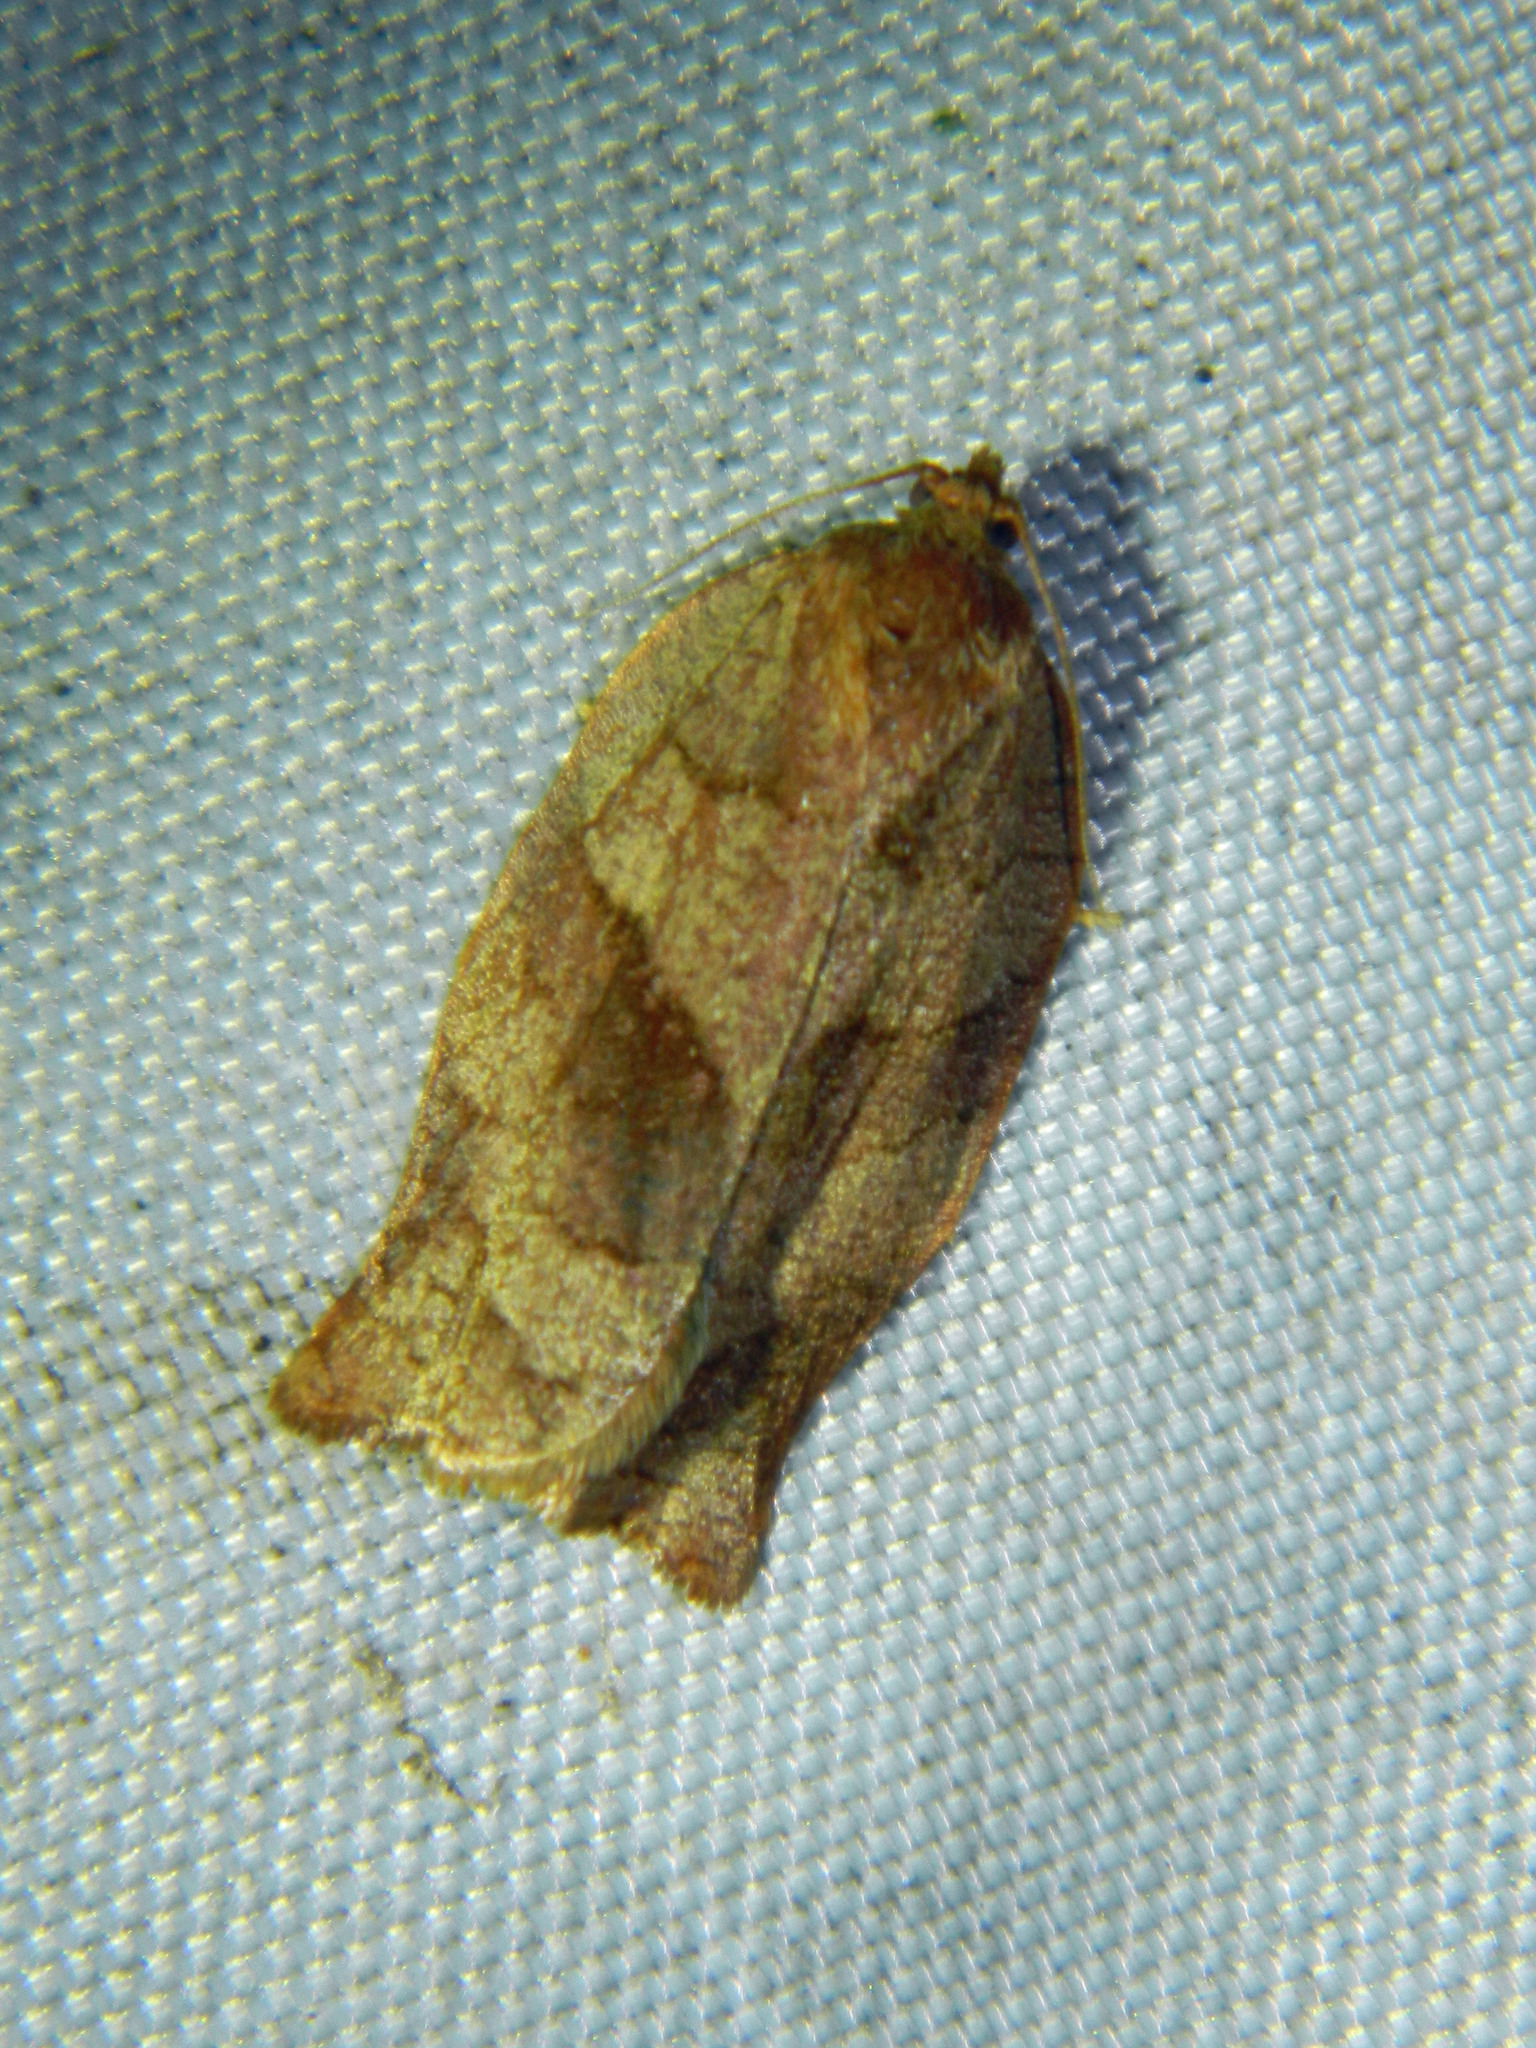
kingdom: Animalia
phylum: Arthropoda
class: Insecta
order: Lepidoptera
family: Tortricidae
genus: Choristoneura
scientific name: Choristoneura rosaceana
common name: Oblique-banded leafroller moth
